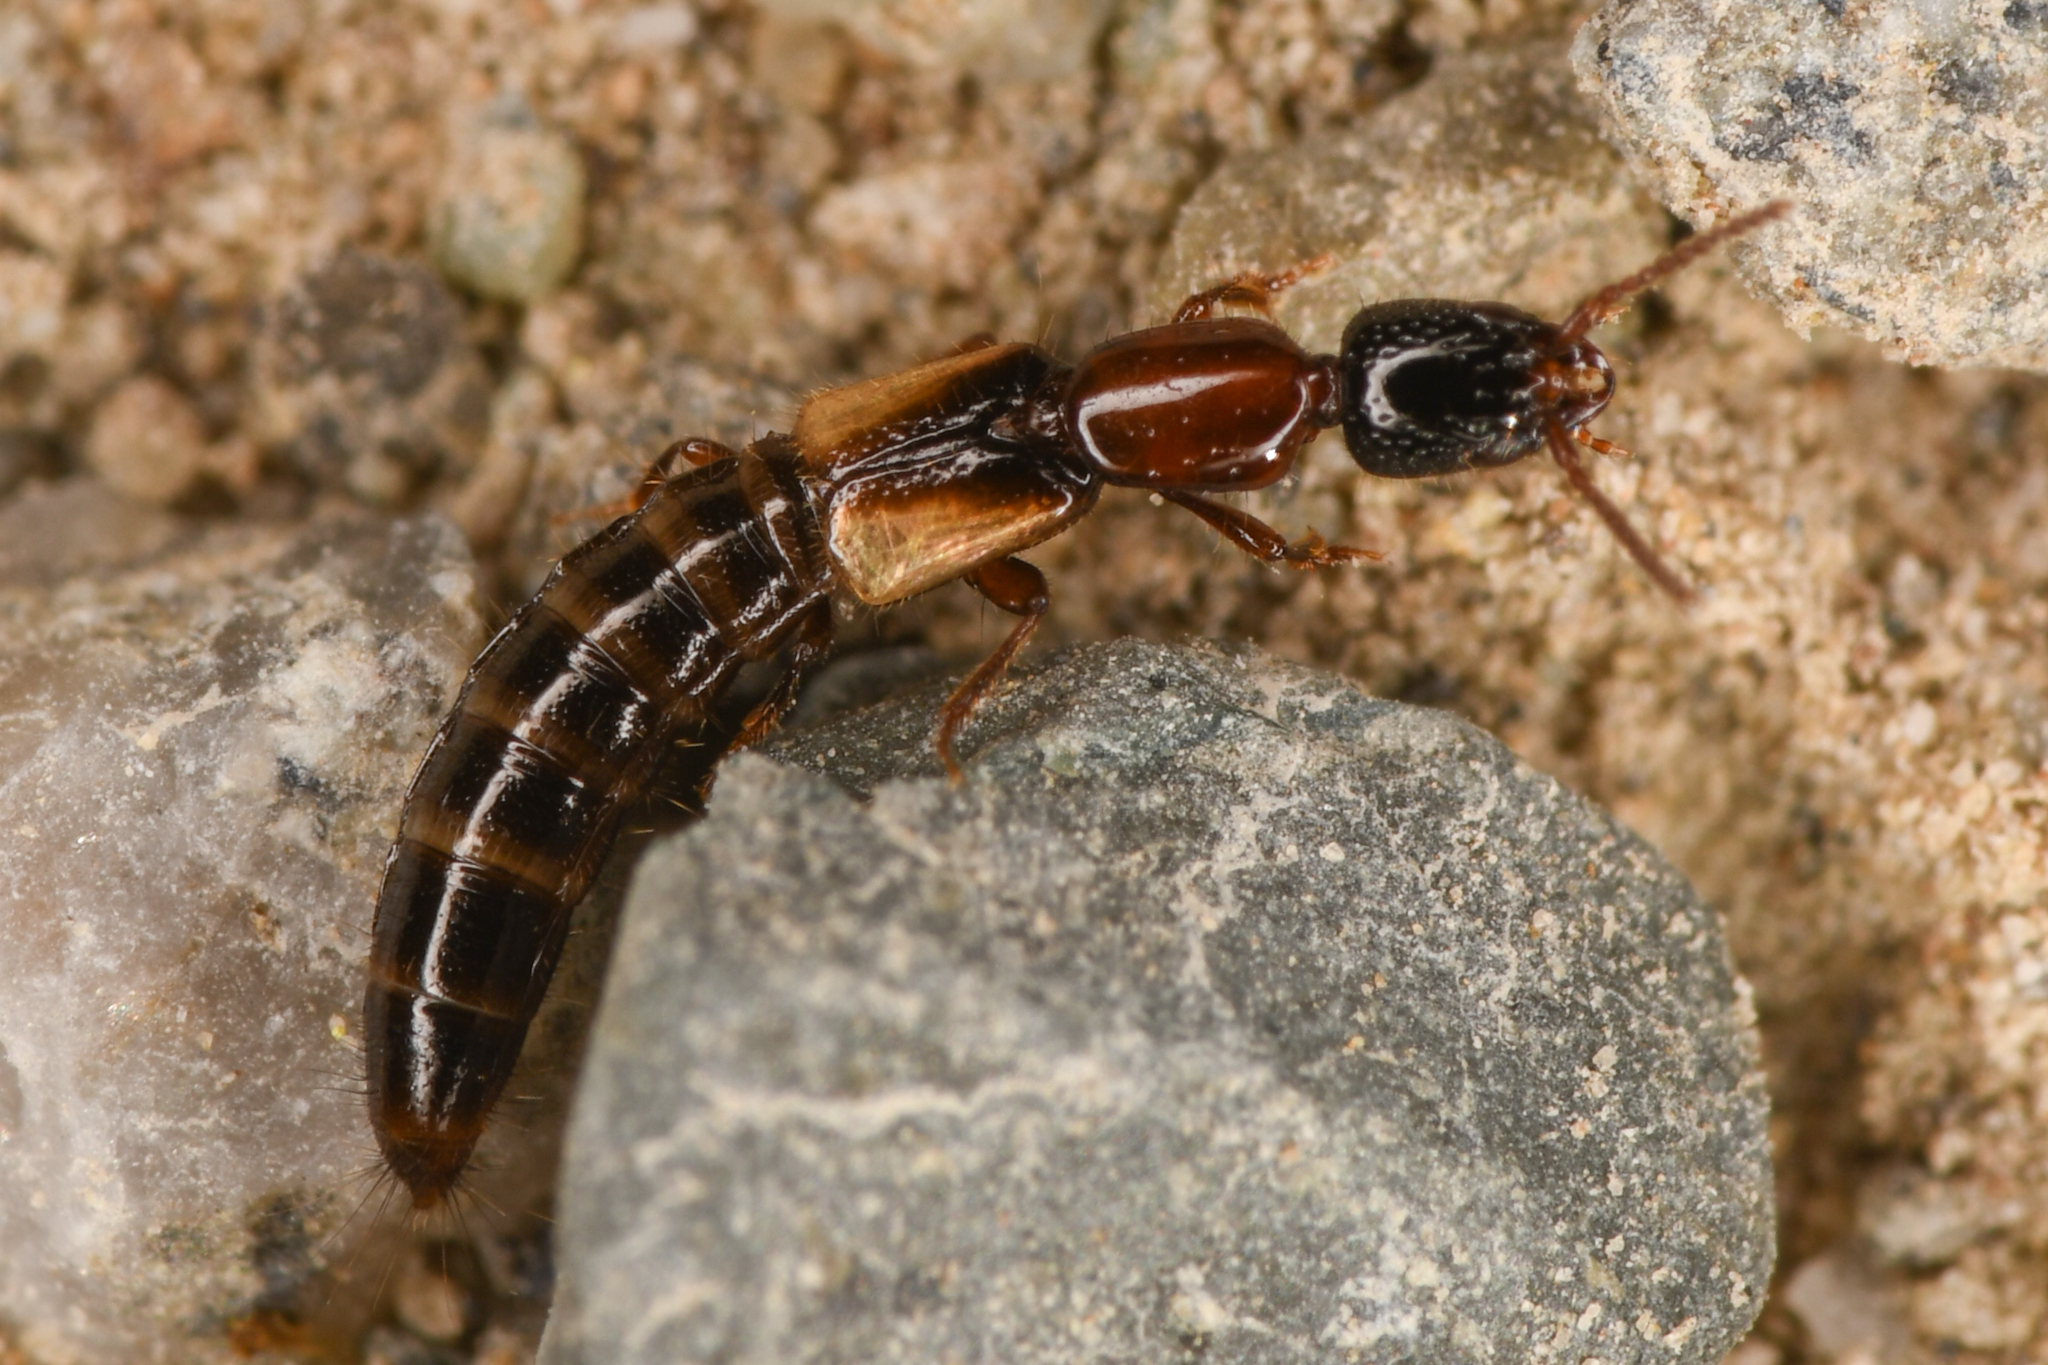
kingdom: Animalia
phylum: Arthropoda
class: Insecta
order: Coleoptera
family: Staphylinidae
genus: Phacophallus
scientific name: Phacophallus pallidipennis
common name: Staph beetle
